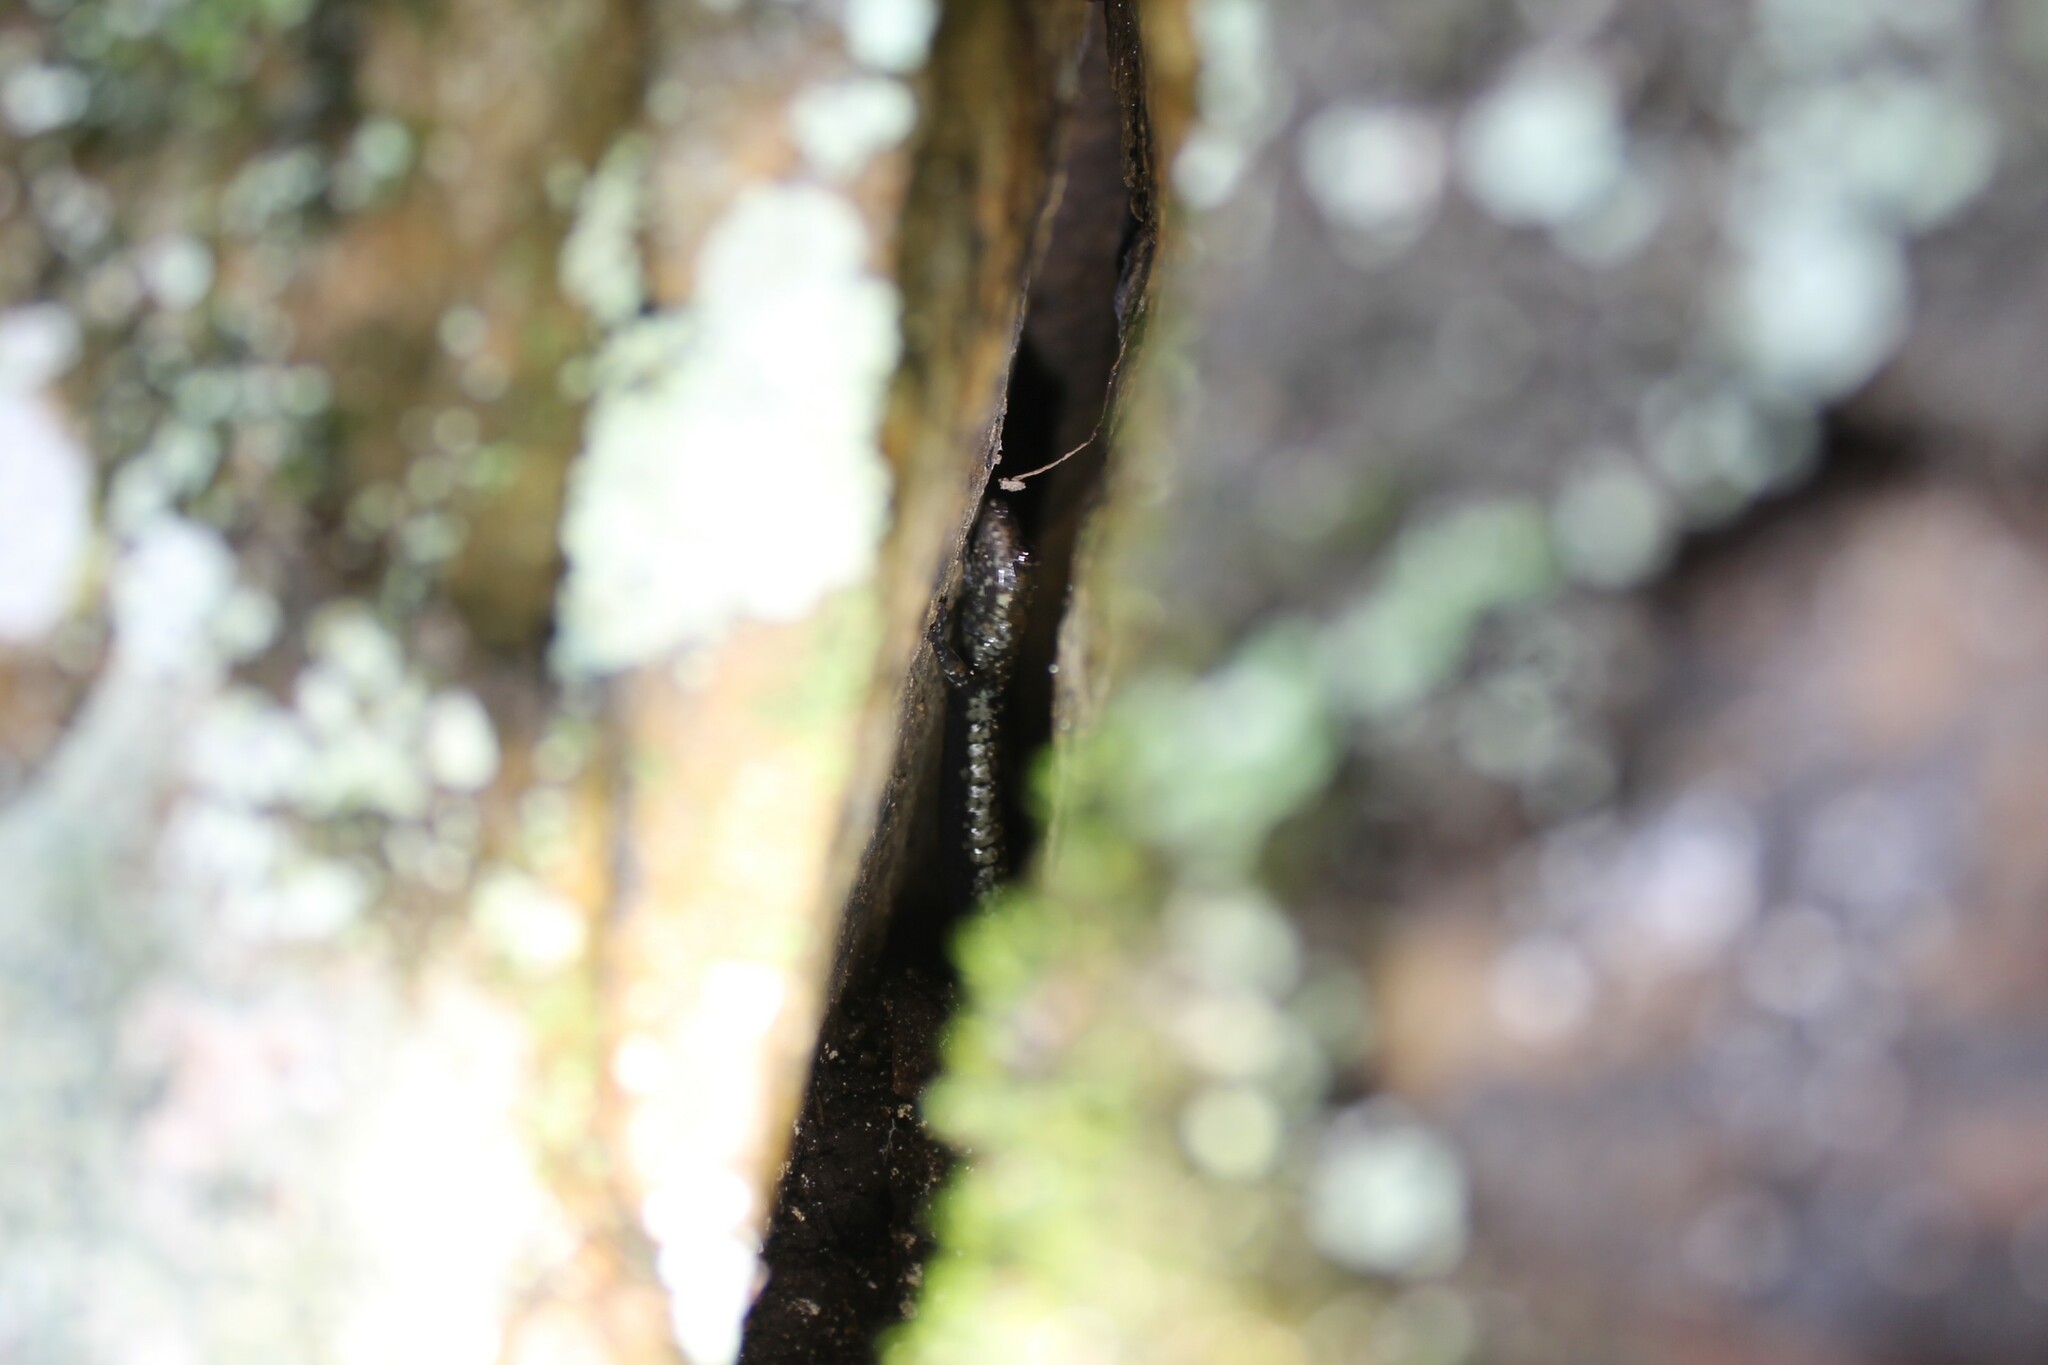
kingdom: Animalia
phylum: Chordata
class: Amphibia
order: Caudata
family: Plethodontidae
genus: Plethodon
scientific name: Plethodon petraeus
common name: Pigeon mountain salamander
